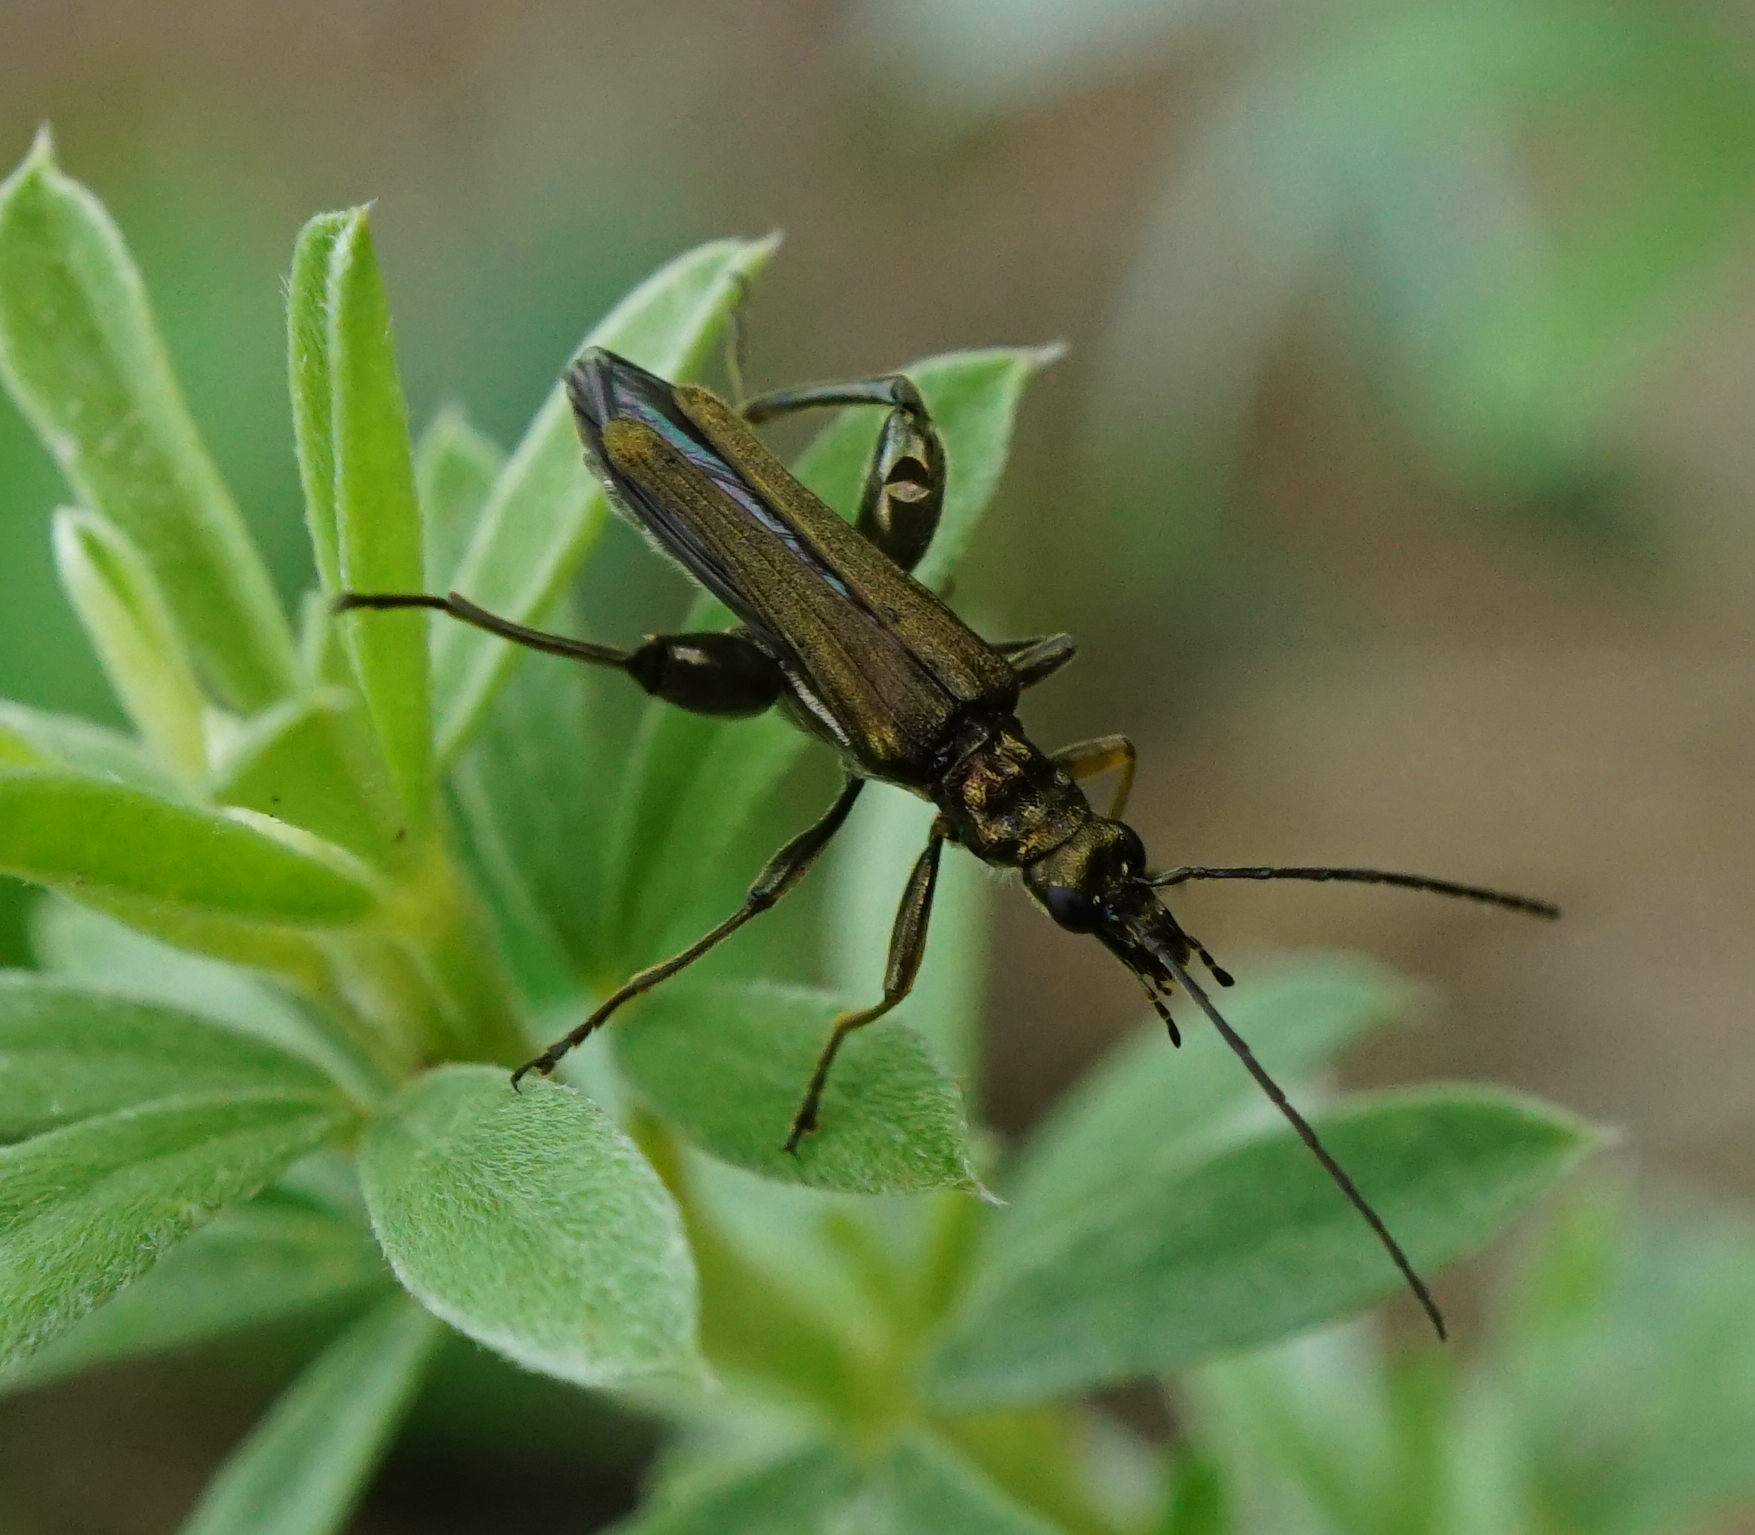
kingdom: Animalia
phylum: Arthropoda
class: Insecta
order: Coleoptera
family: Oedemeridae
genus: Oedemera
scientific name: Oedemera flavipes
